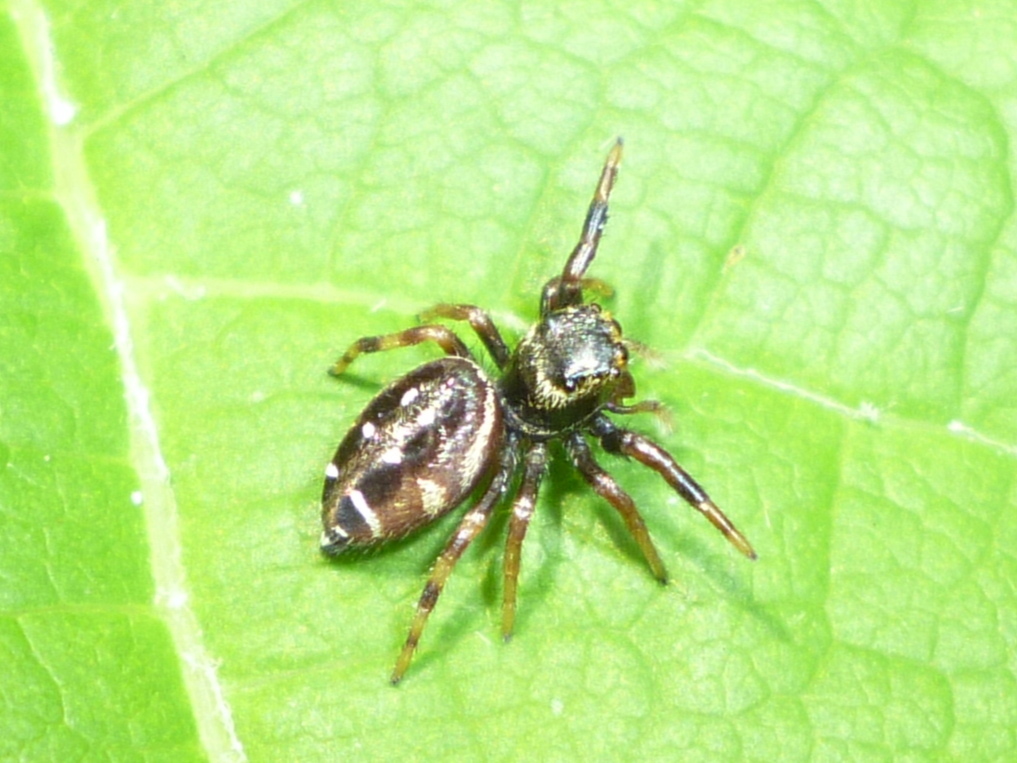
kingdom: Animalia
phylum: Arthropoda
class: Arachnida
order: Araneae
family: Salticidae
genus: Paraphidippus
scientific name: Paraphidippus aurantius
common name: Jumping spiders
